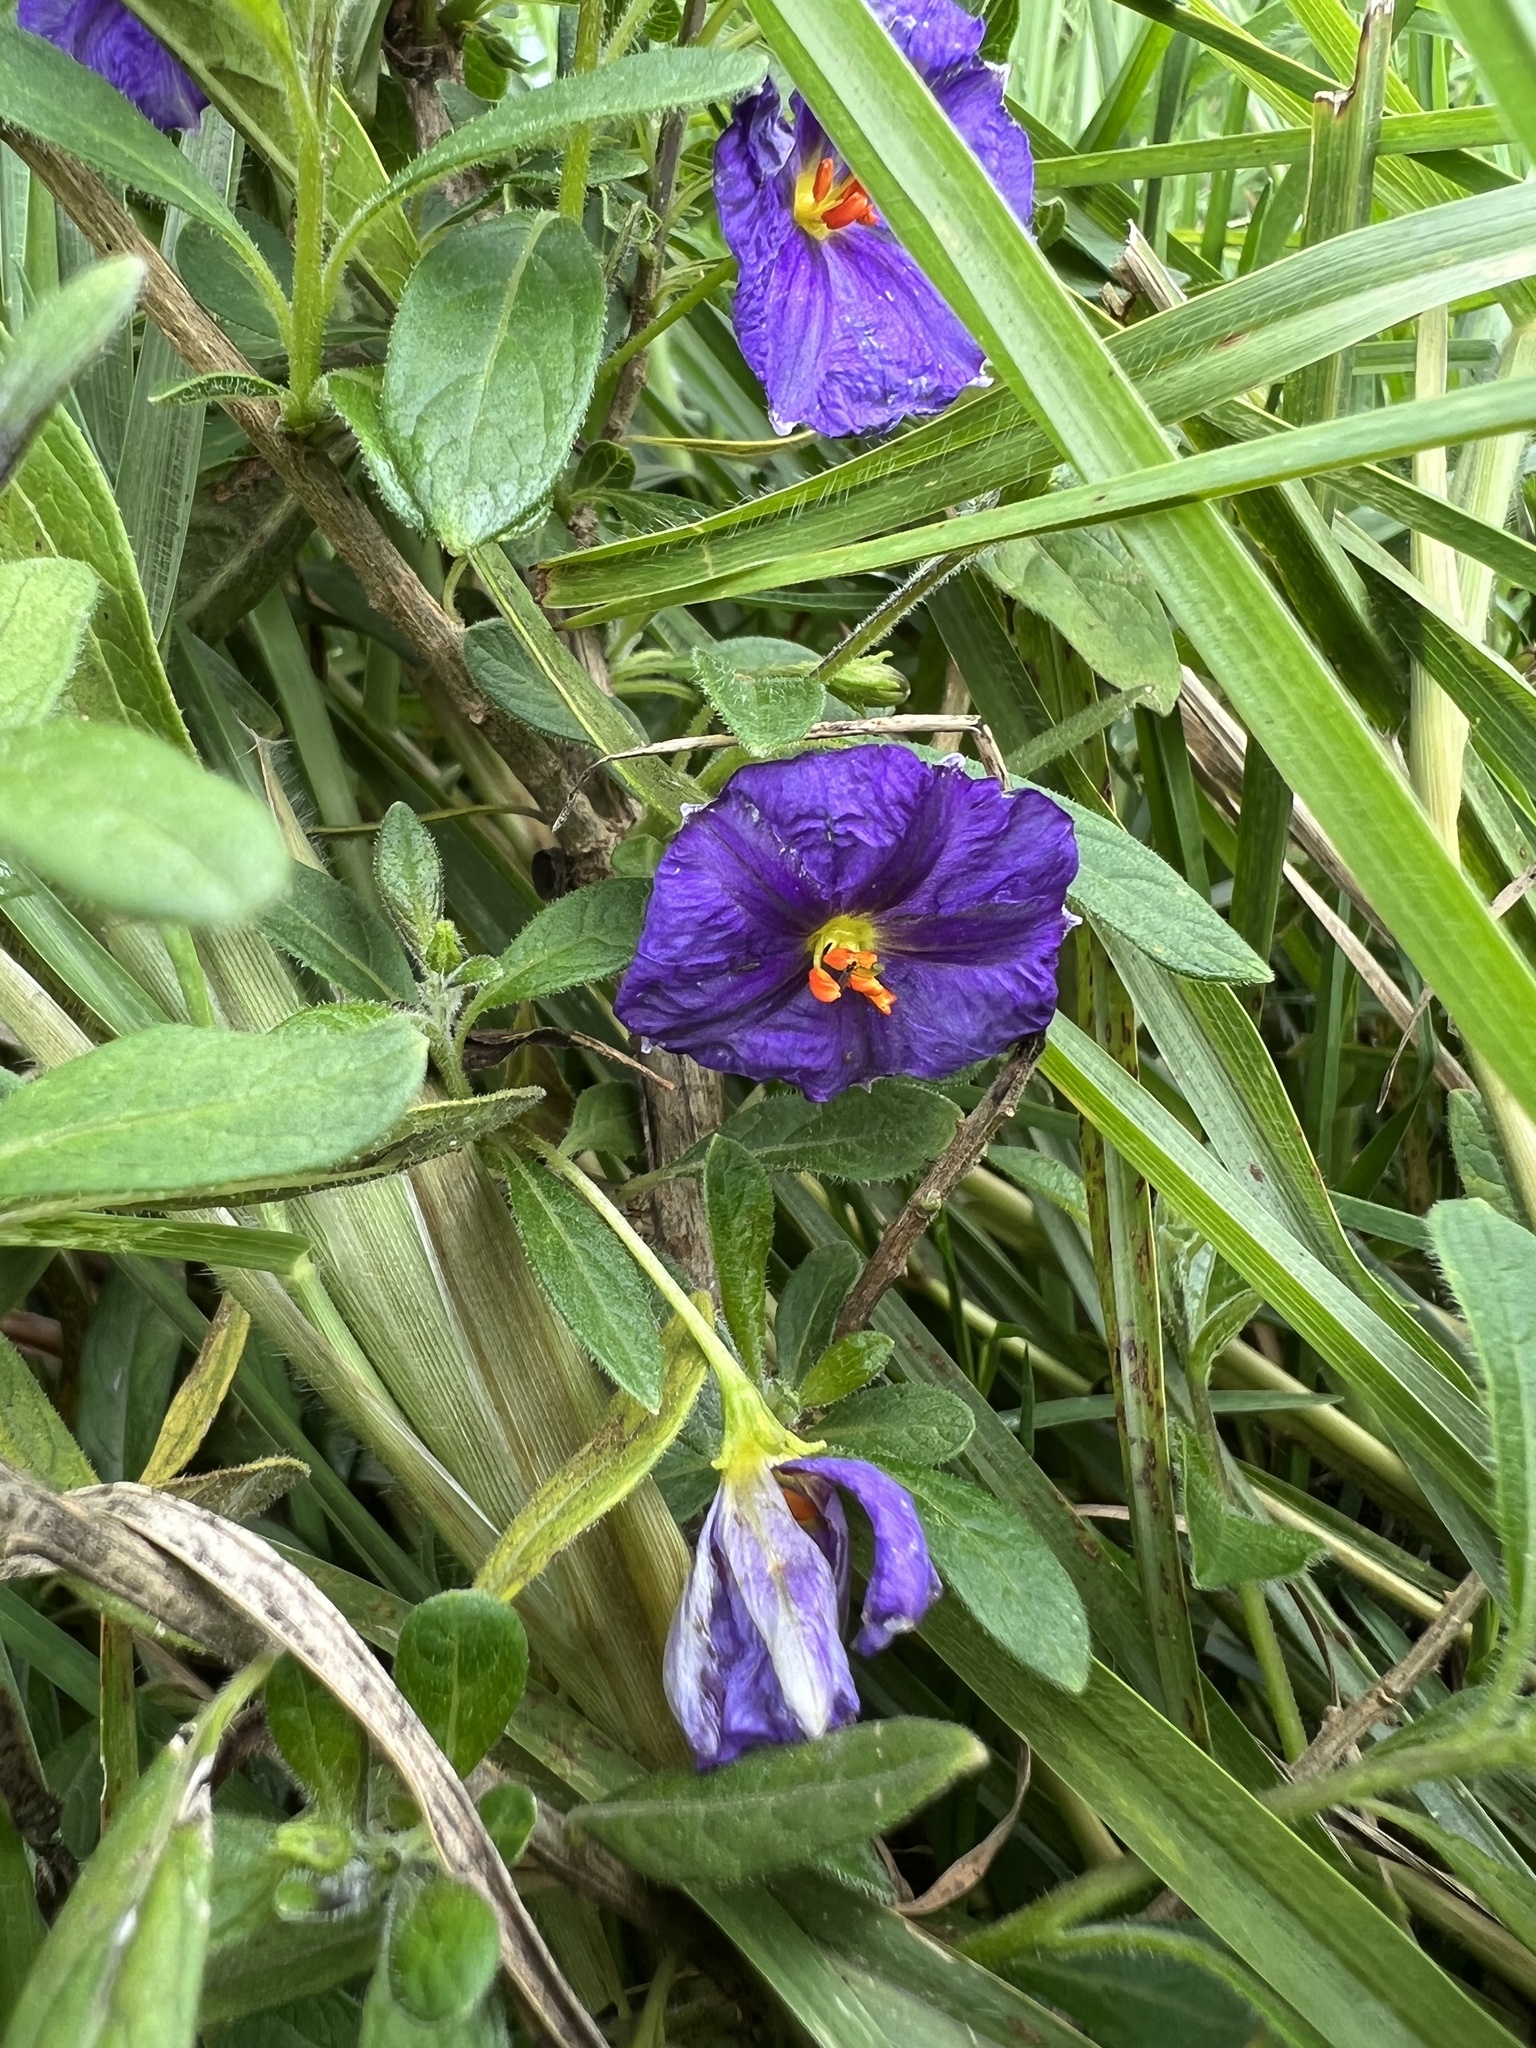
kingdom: Plantae
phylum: Tracheophyta
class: Magnoliopsida
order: Solanales
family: Solanaceae
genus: Lycianthes
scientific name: Lycianthes lycioides
